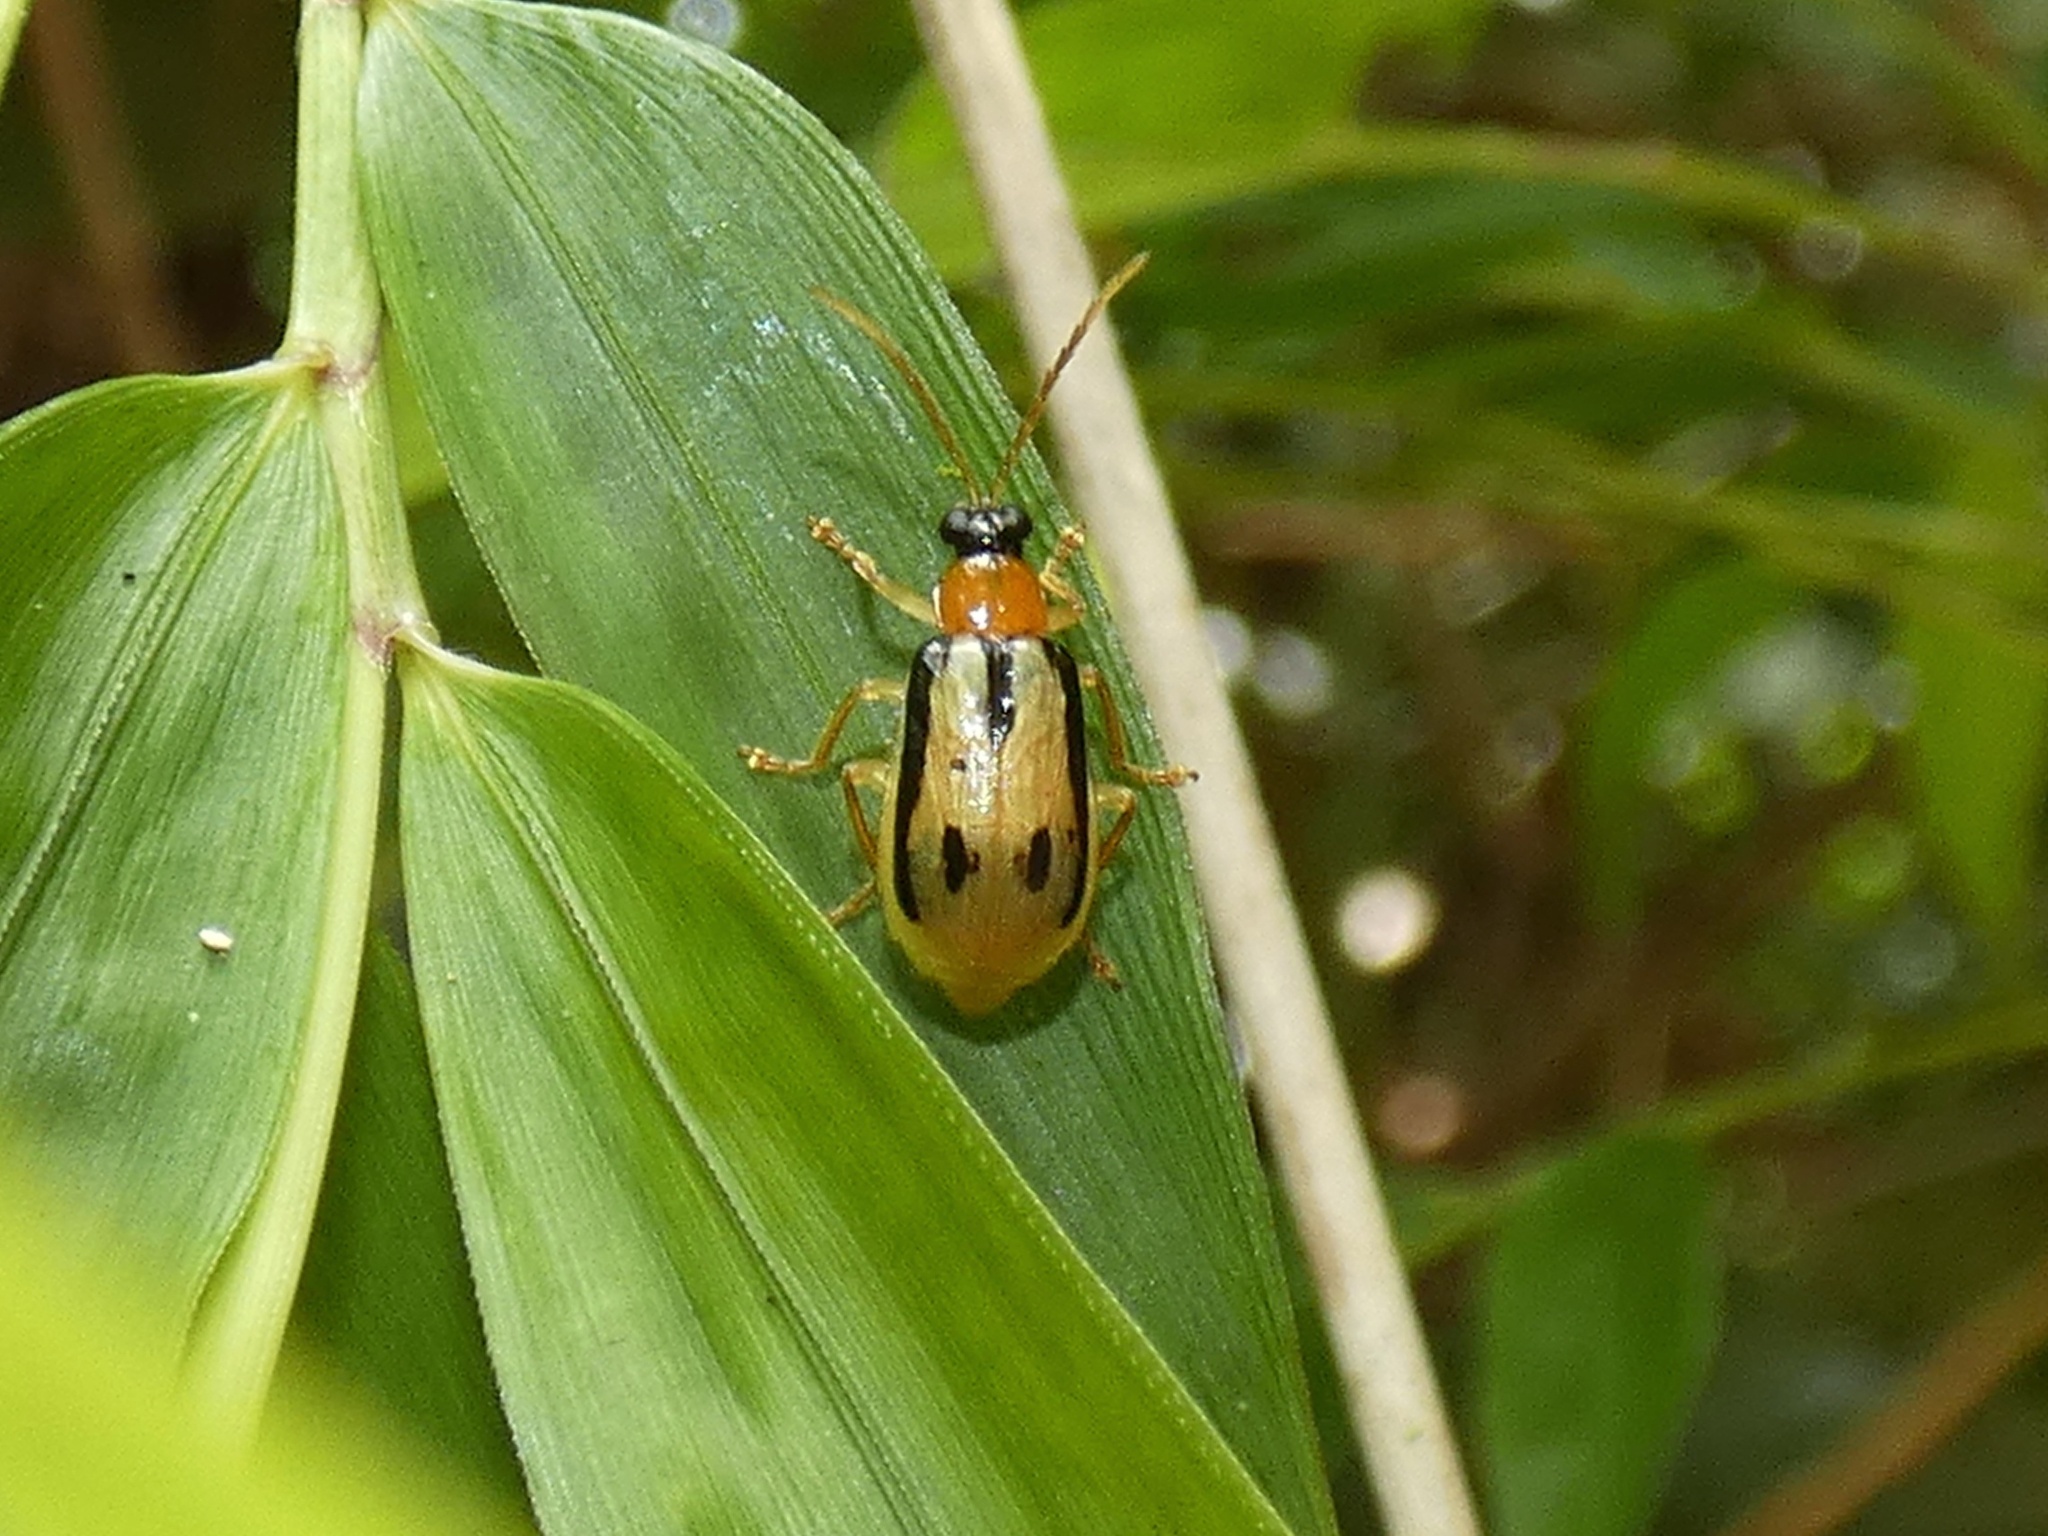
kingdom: Animalia
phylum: Arthropoda
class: Insecta
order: Coleoptera
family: Chrysomelidae
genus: Diabrotica
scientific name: Diabrotica lopatini
